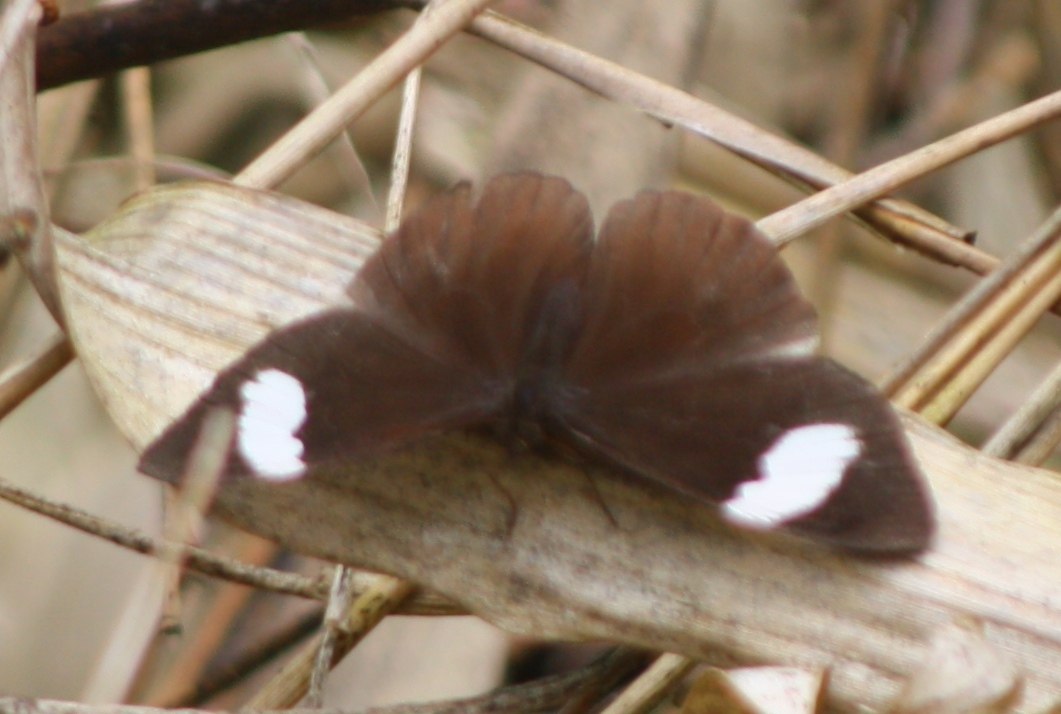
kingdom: Animalia
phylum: Arthropoda
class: Insecta
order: Lepidoptera
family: Nymphalidae
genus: Pedaliodes
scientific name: Pedaliodes porina
